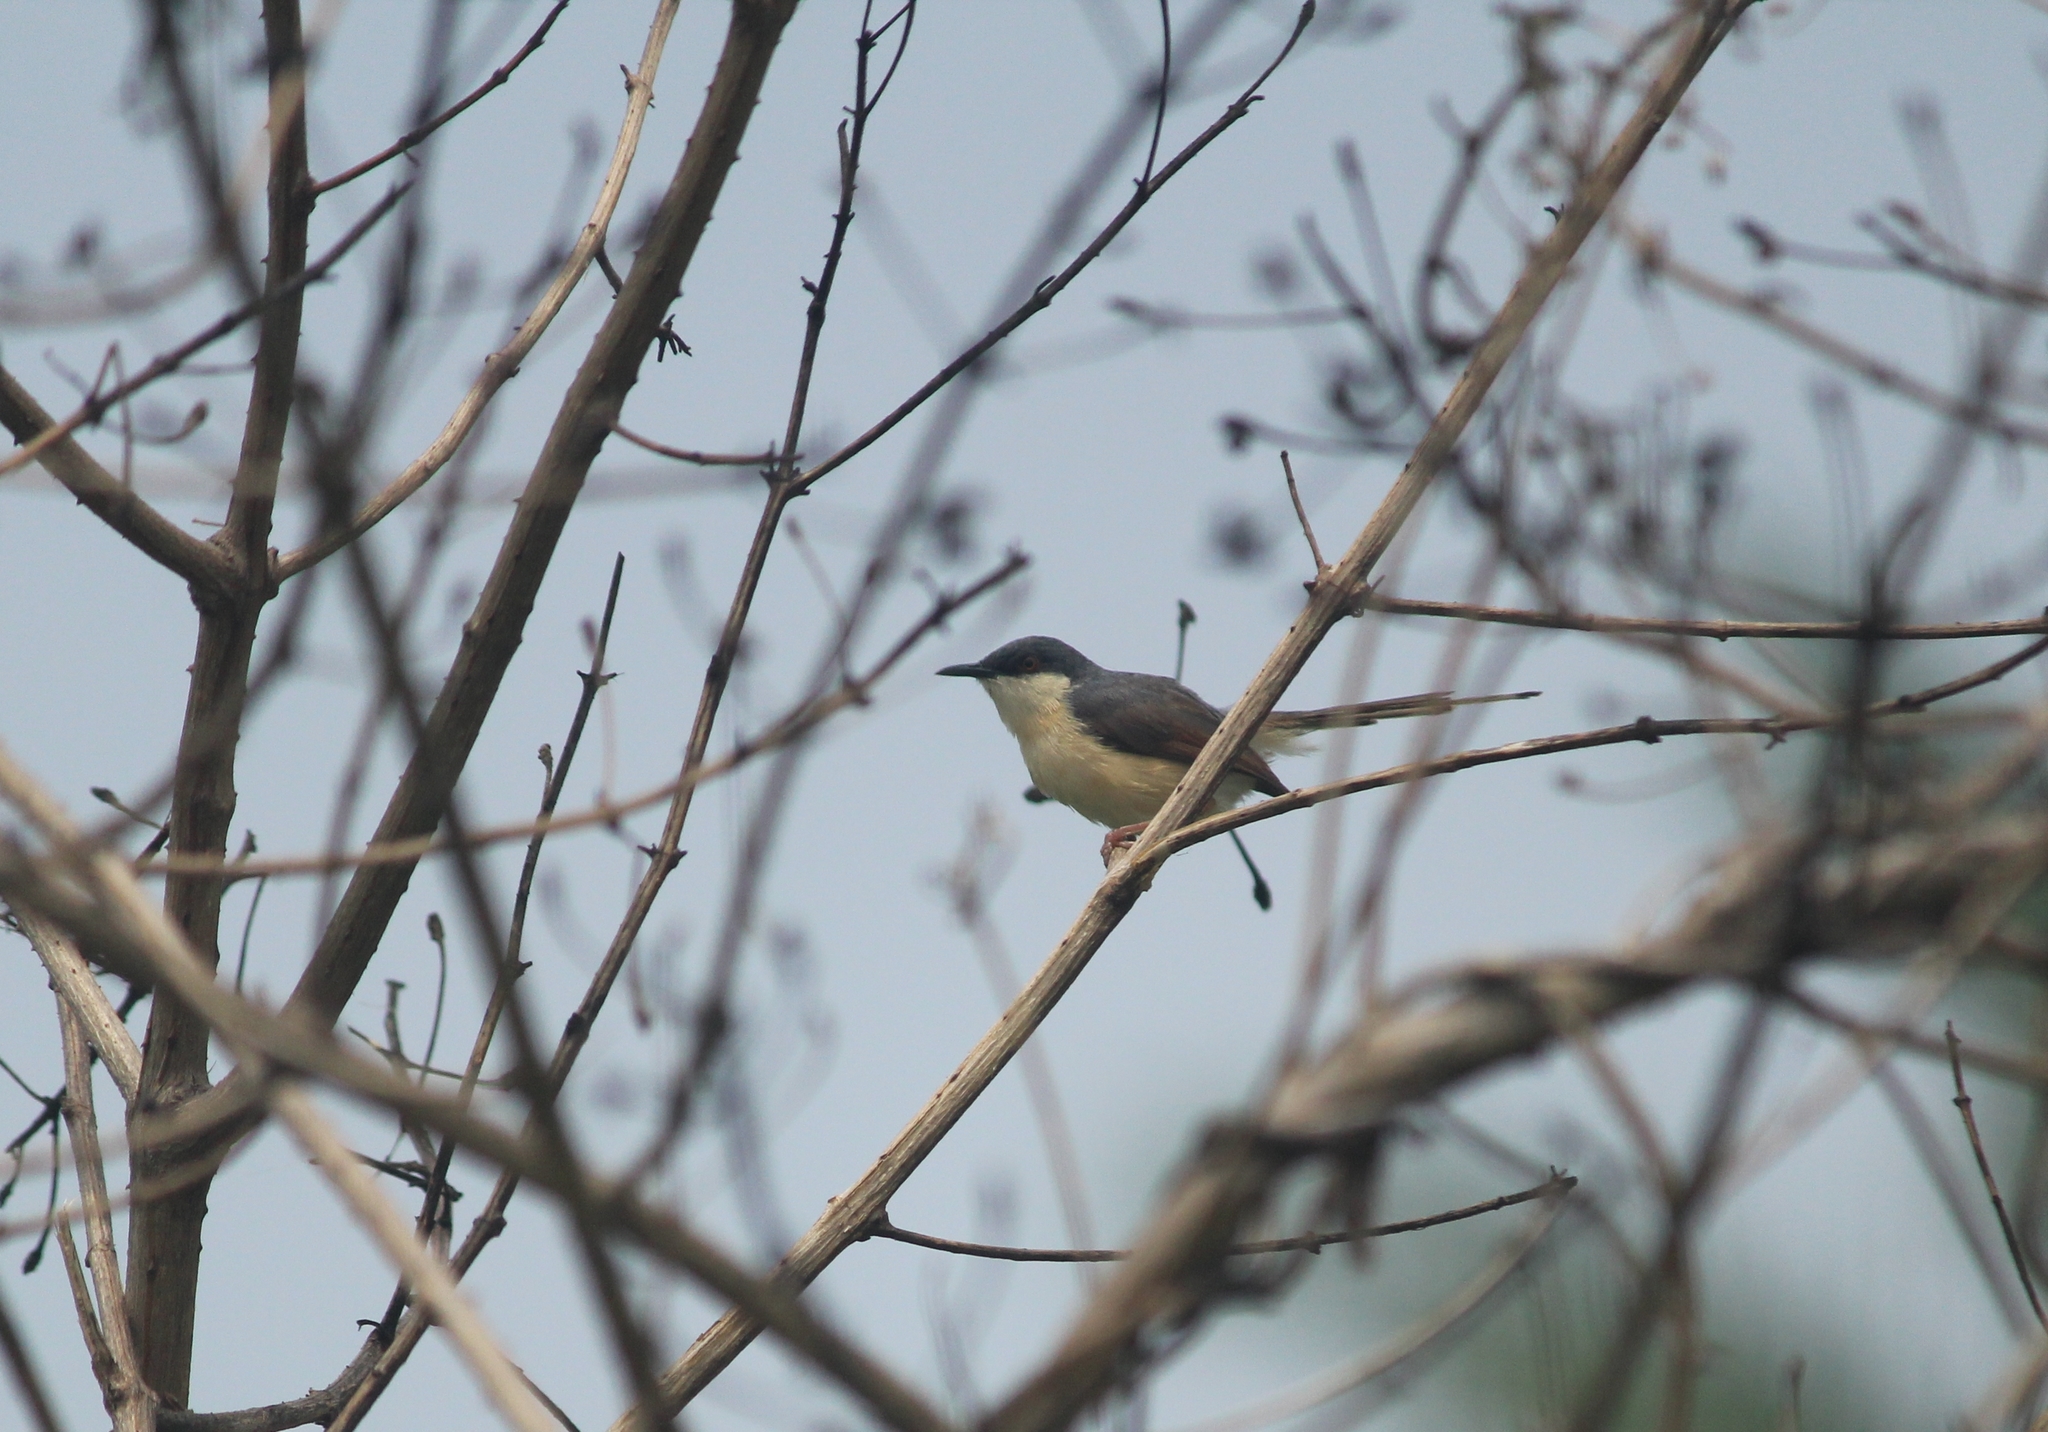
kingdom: Animalia
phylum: Chordata
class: Aves
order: Passeriformes
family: Cisticolidae
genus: Prinia
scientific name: Prinia socialis
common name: Ashy prinia
